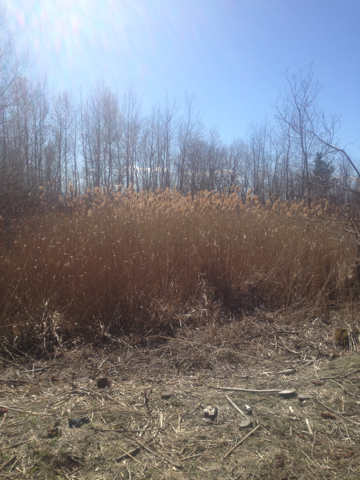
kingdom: Plantae
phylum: Tracheophyta
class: Liliopsida
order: Poales
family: Poaceae
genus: Phragmites
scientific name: Phragmites australis
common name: Common reed
